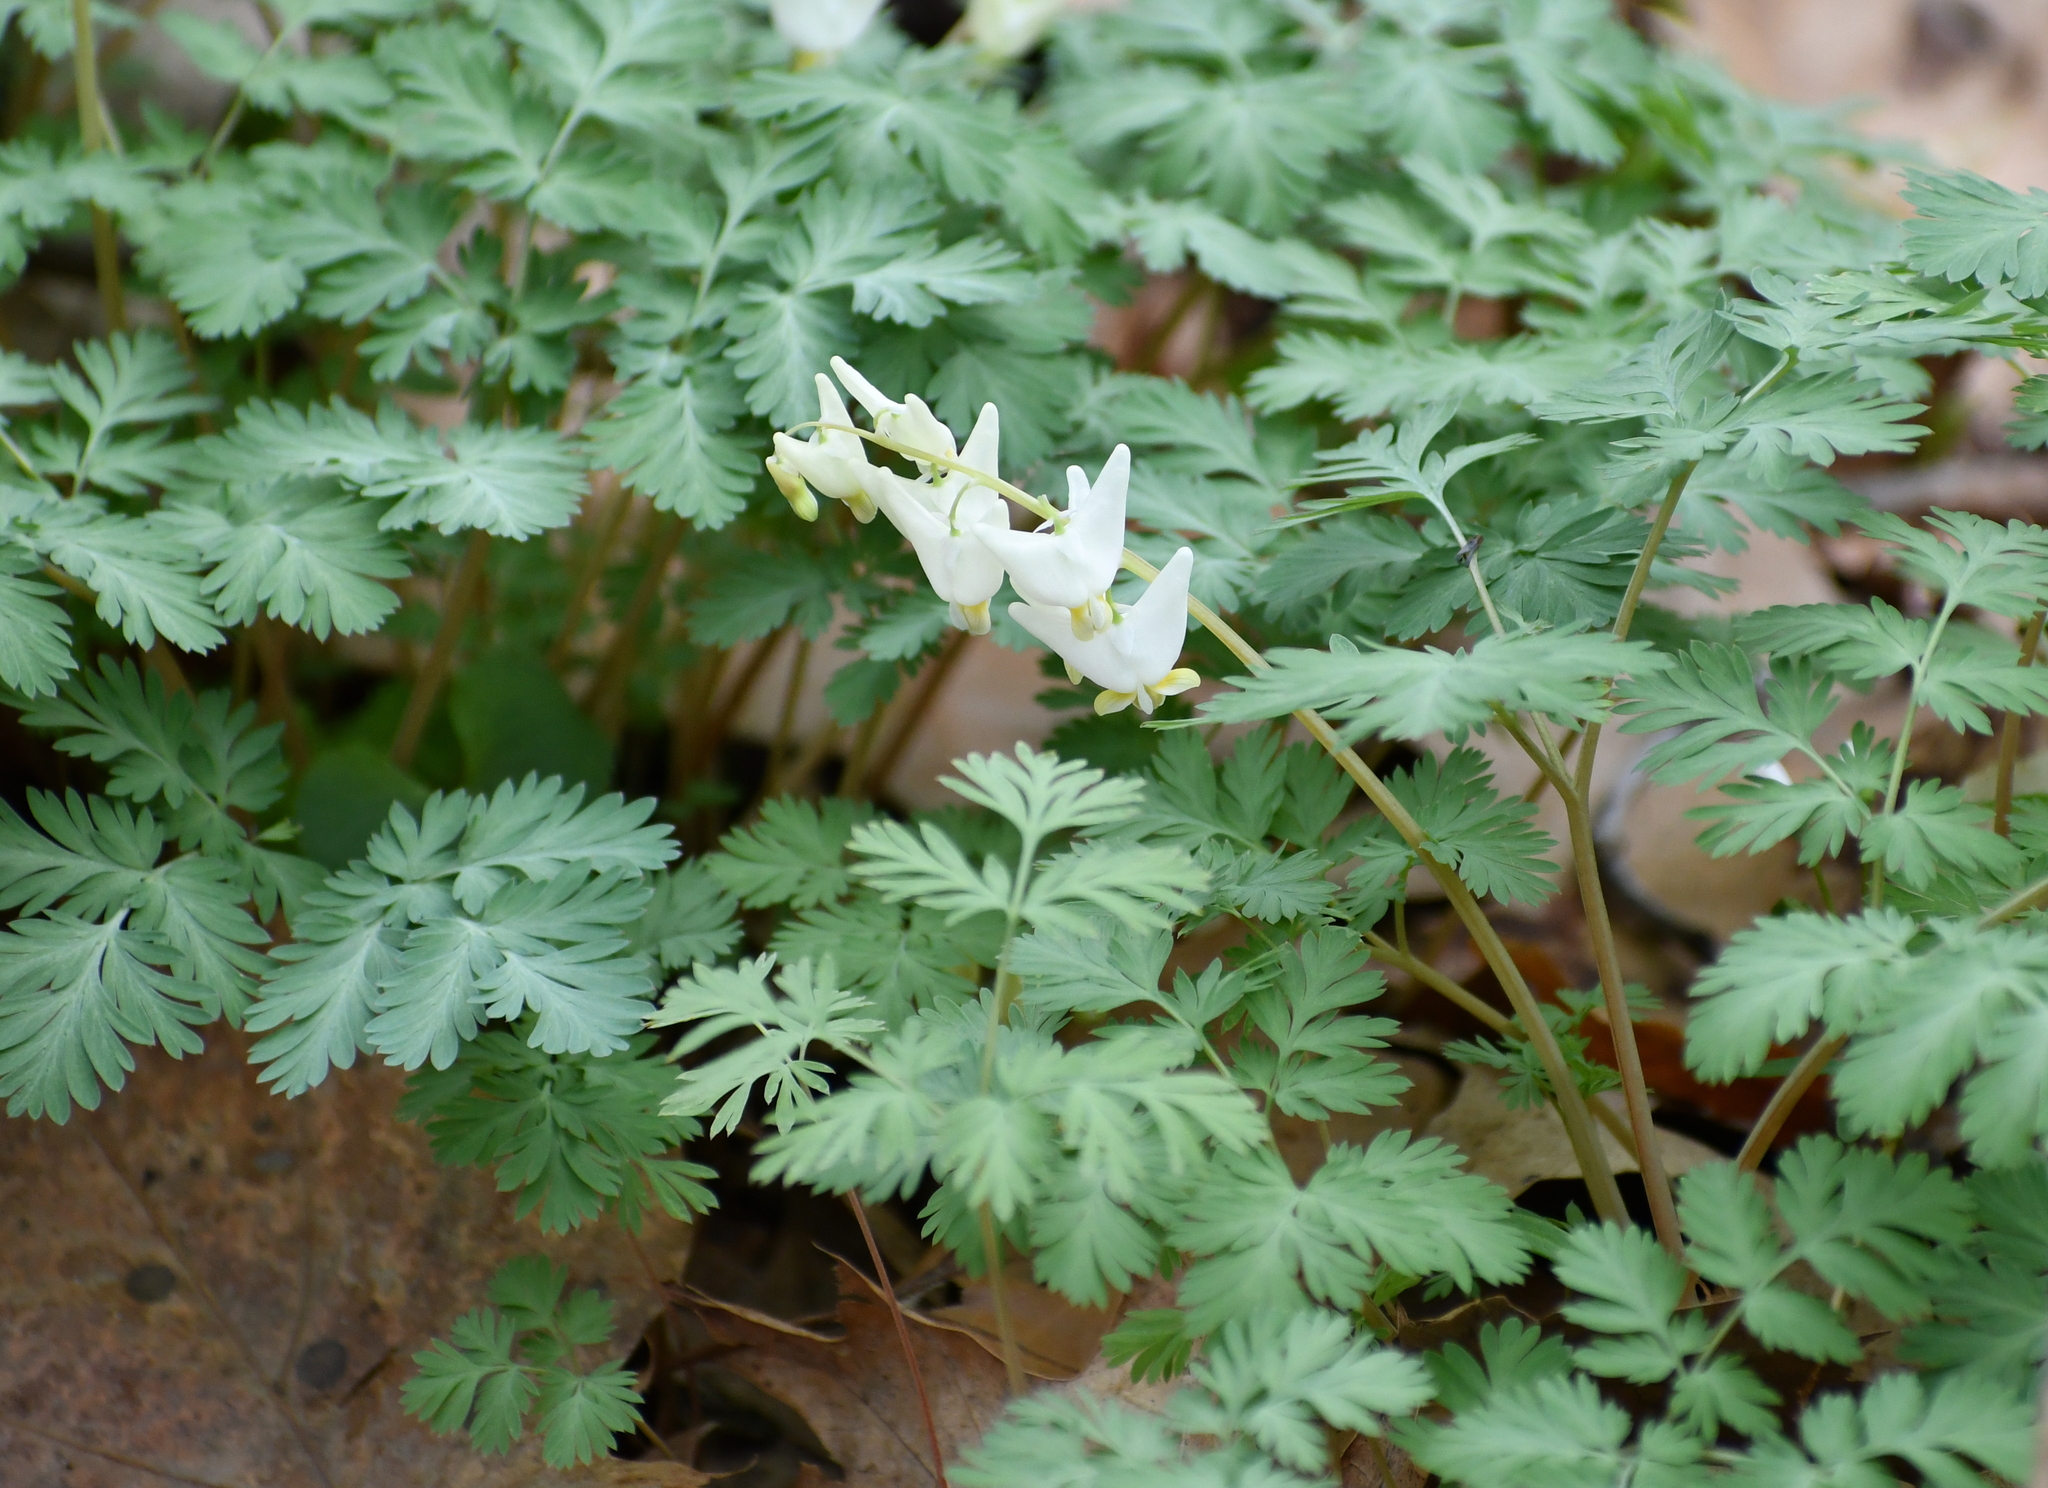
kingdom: Plantae
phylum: Tracheophyta
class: Magnoliopsida
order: Ranunculales
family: Papaveraceae
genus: Dicentra
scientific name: Dicentra cucullaria
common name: Dutchman's breeches
